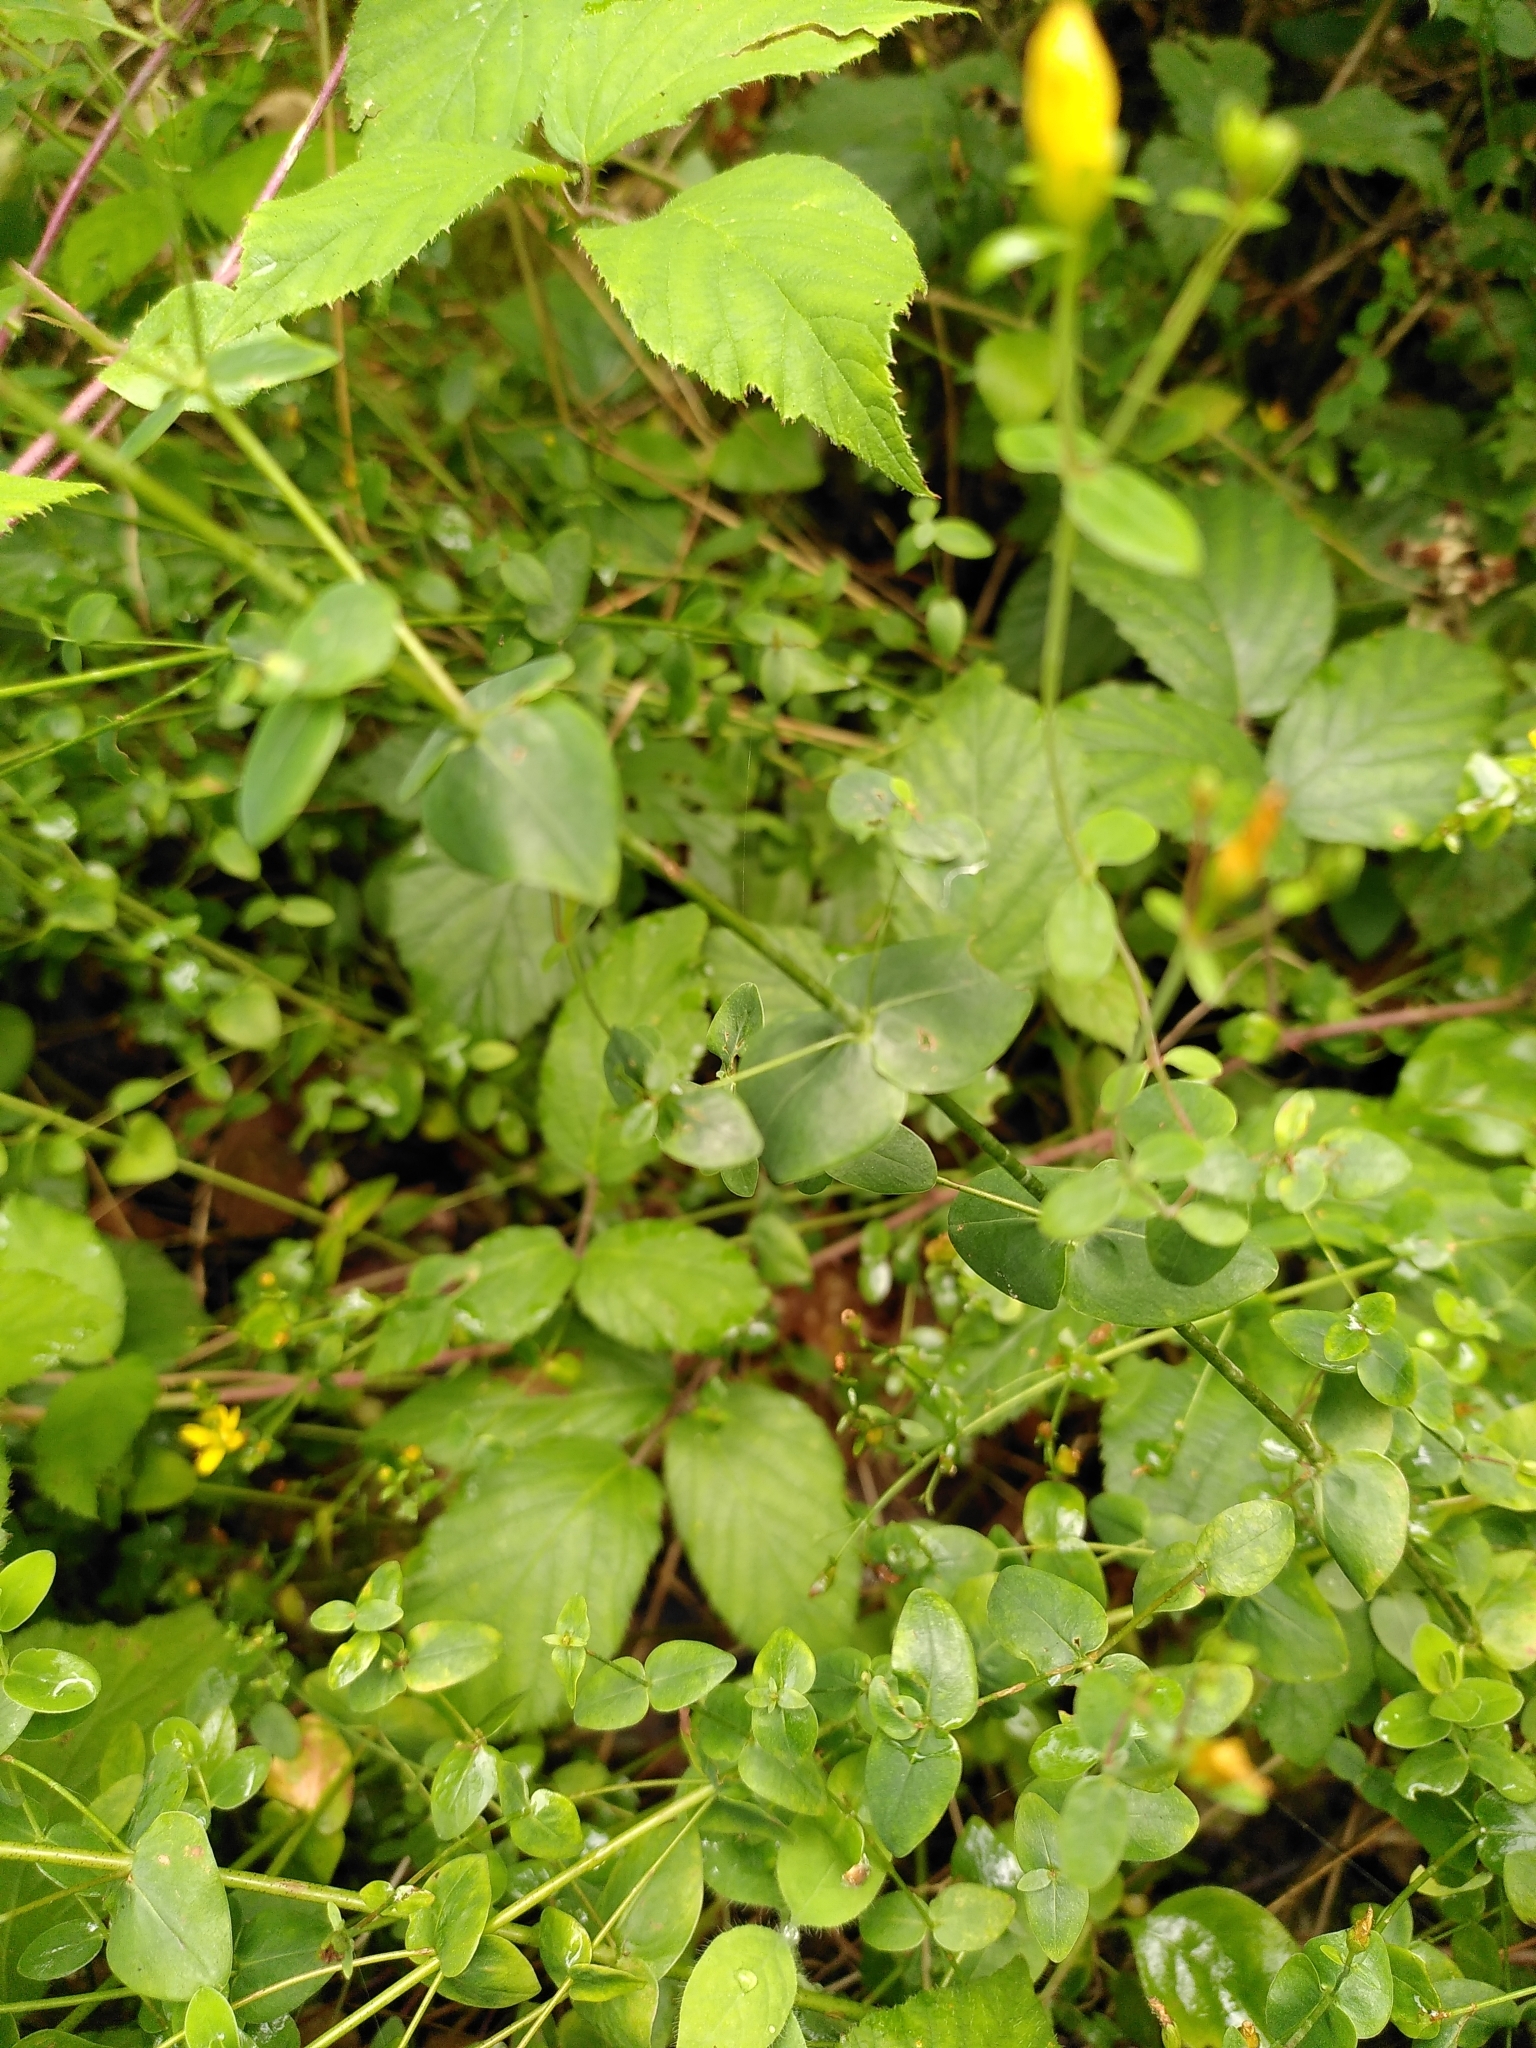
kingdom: Plantae
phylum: Tracheophyta
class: Magnoliopsida
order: Malpighiales
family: Hypericaceae
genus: Hypericum
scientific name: Hypericum pulchrum
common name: Slender st. john's-wort
